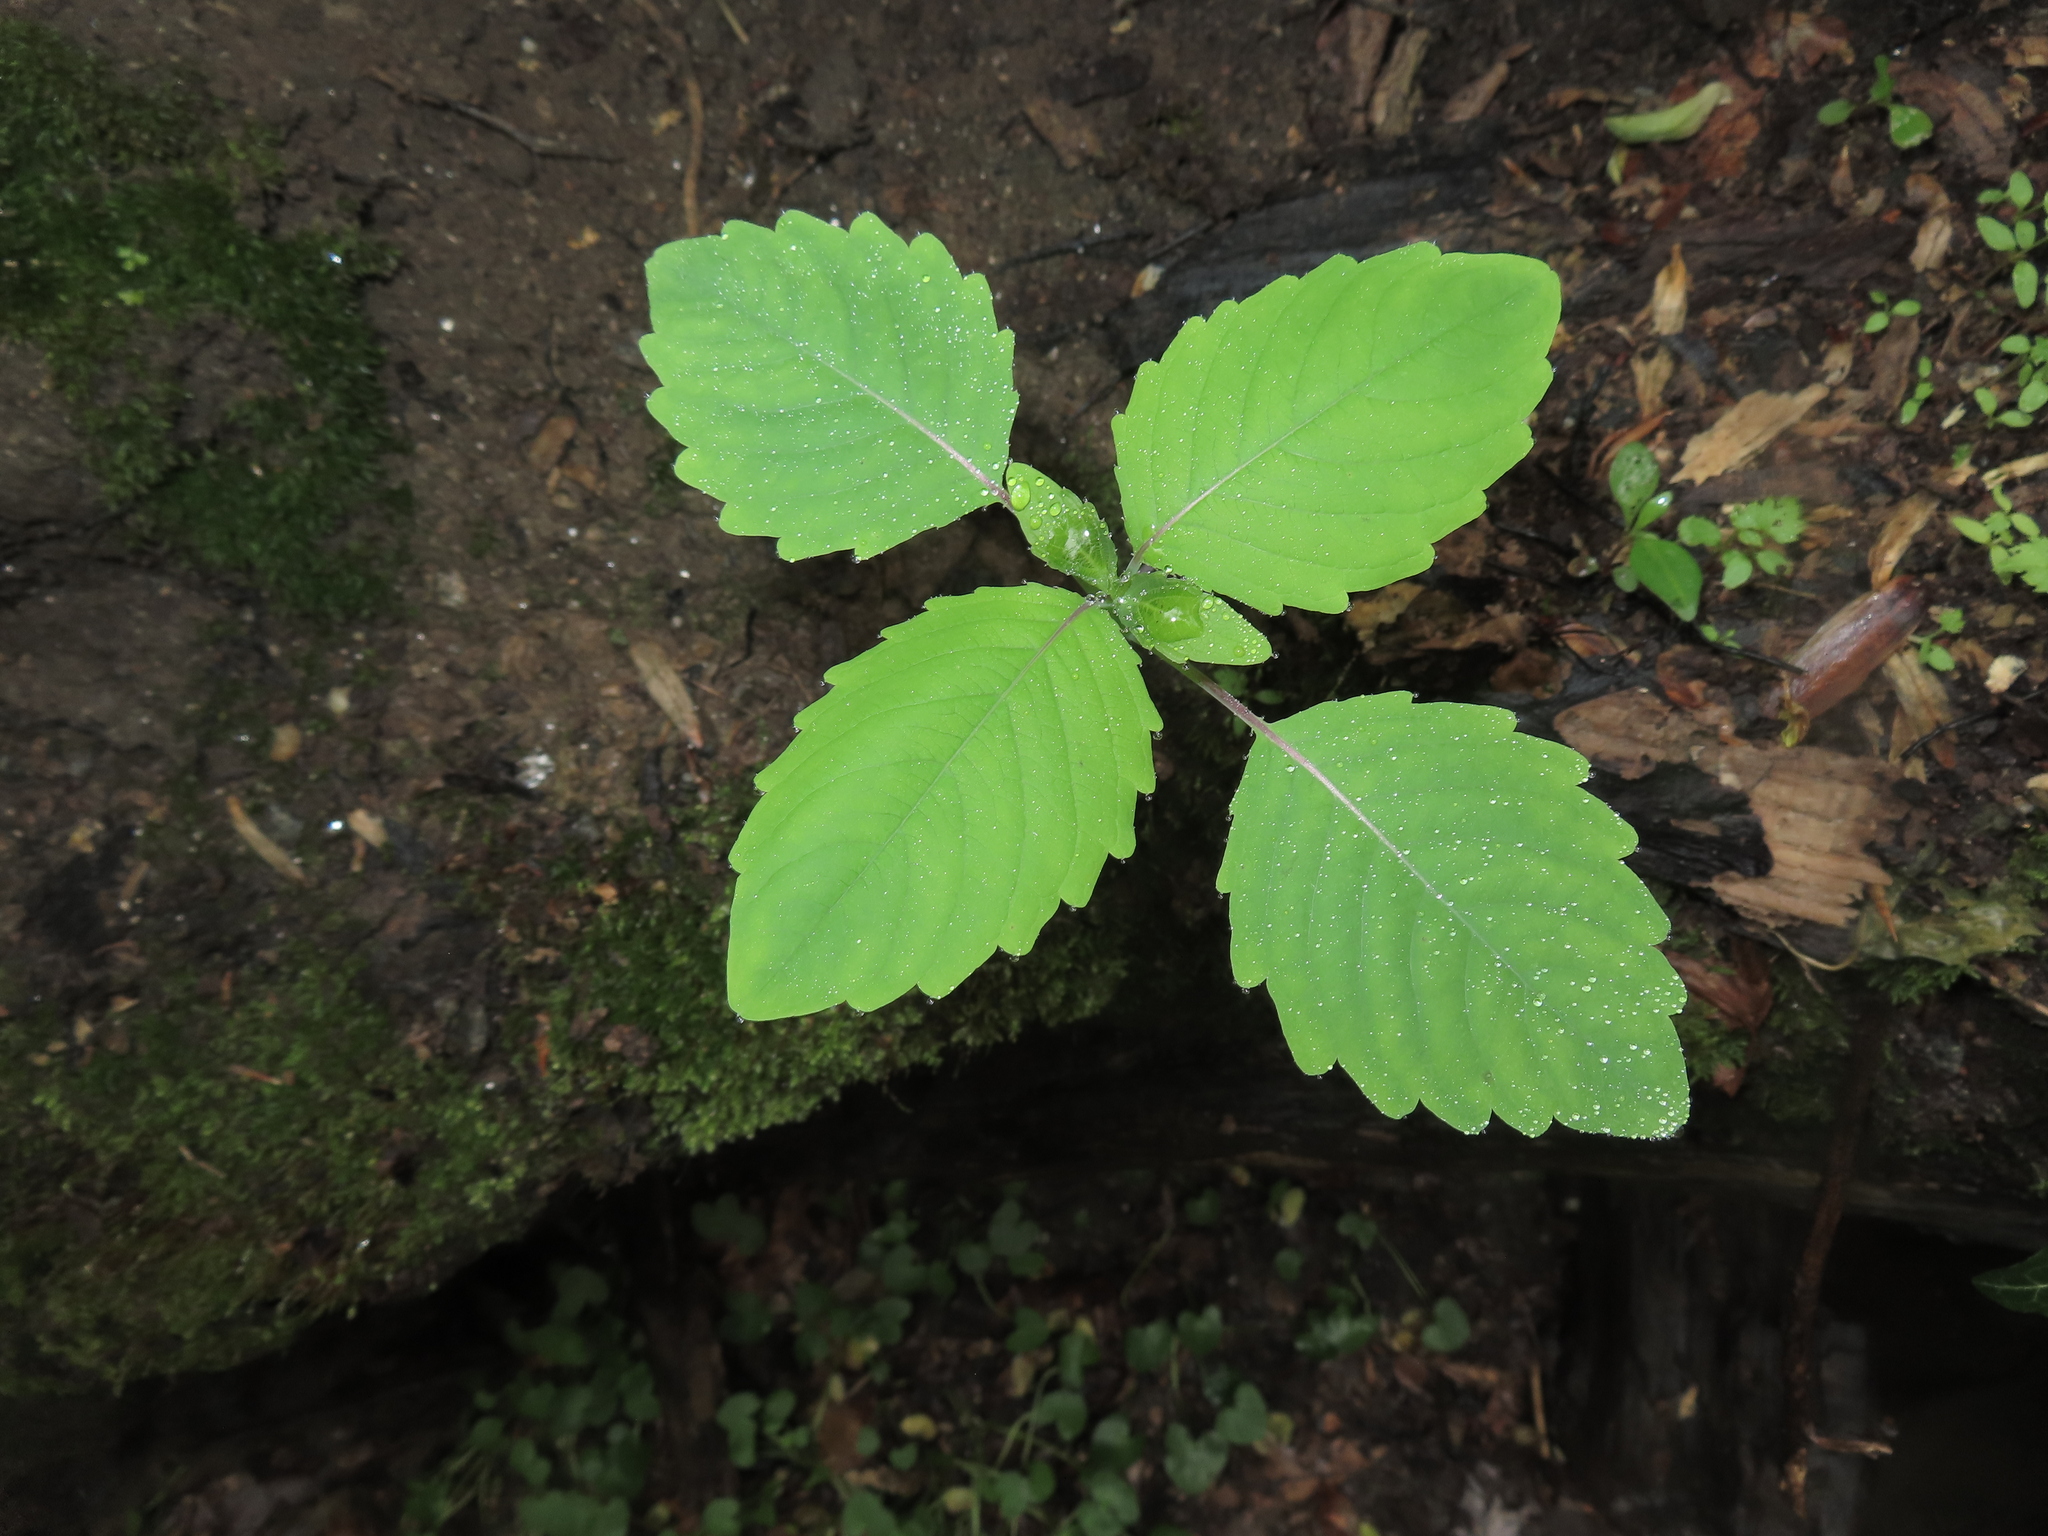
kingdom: Plantae
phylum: Tracheophyta
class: Magnoliopsida
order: Ericales
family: Balsaminaceae
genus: Impatiens
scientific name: Impatiens
